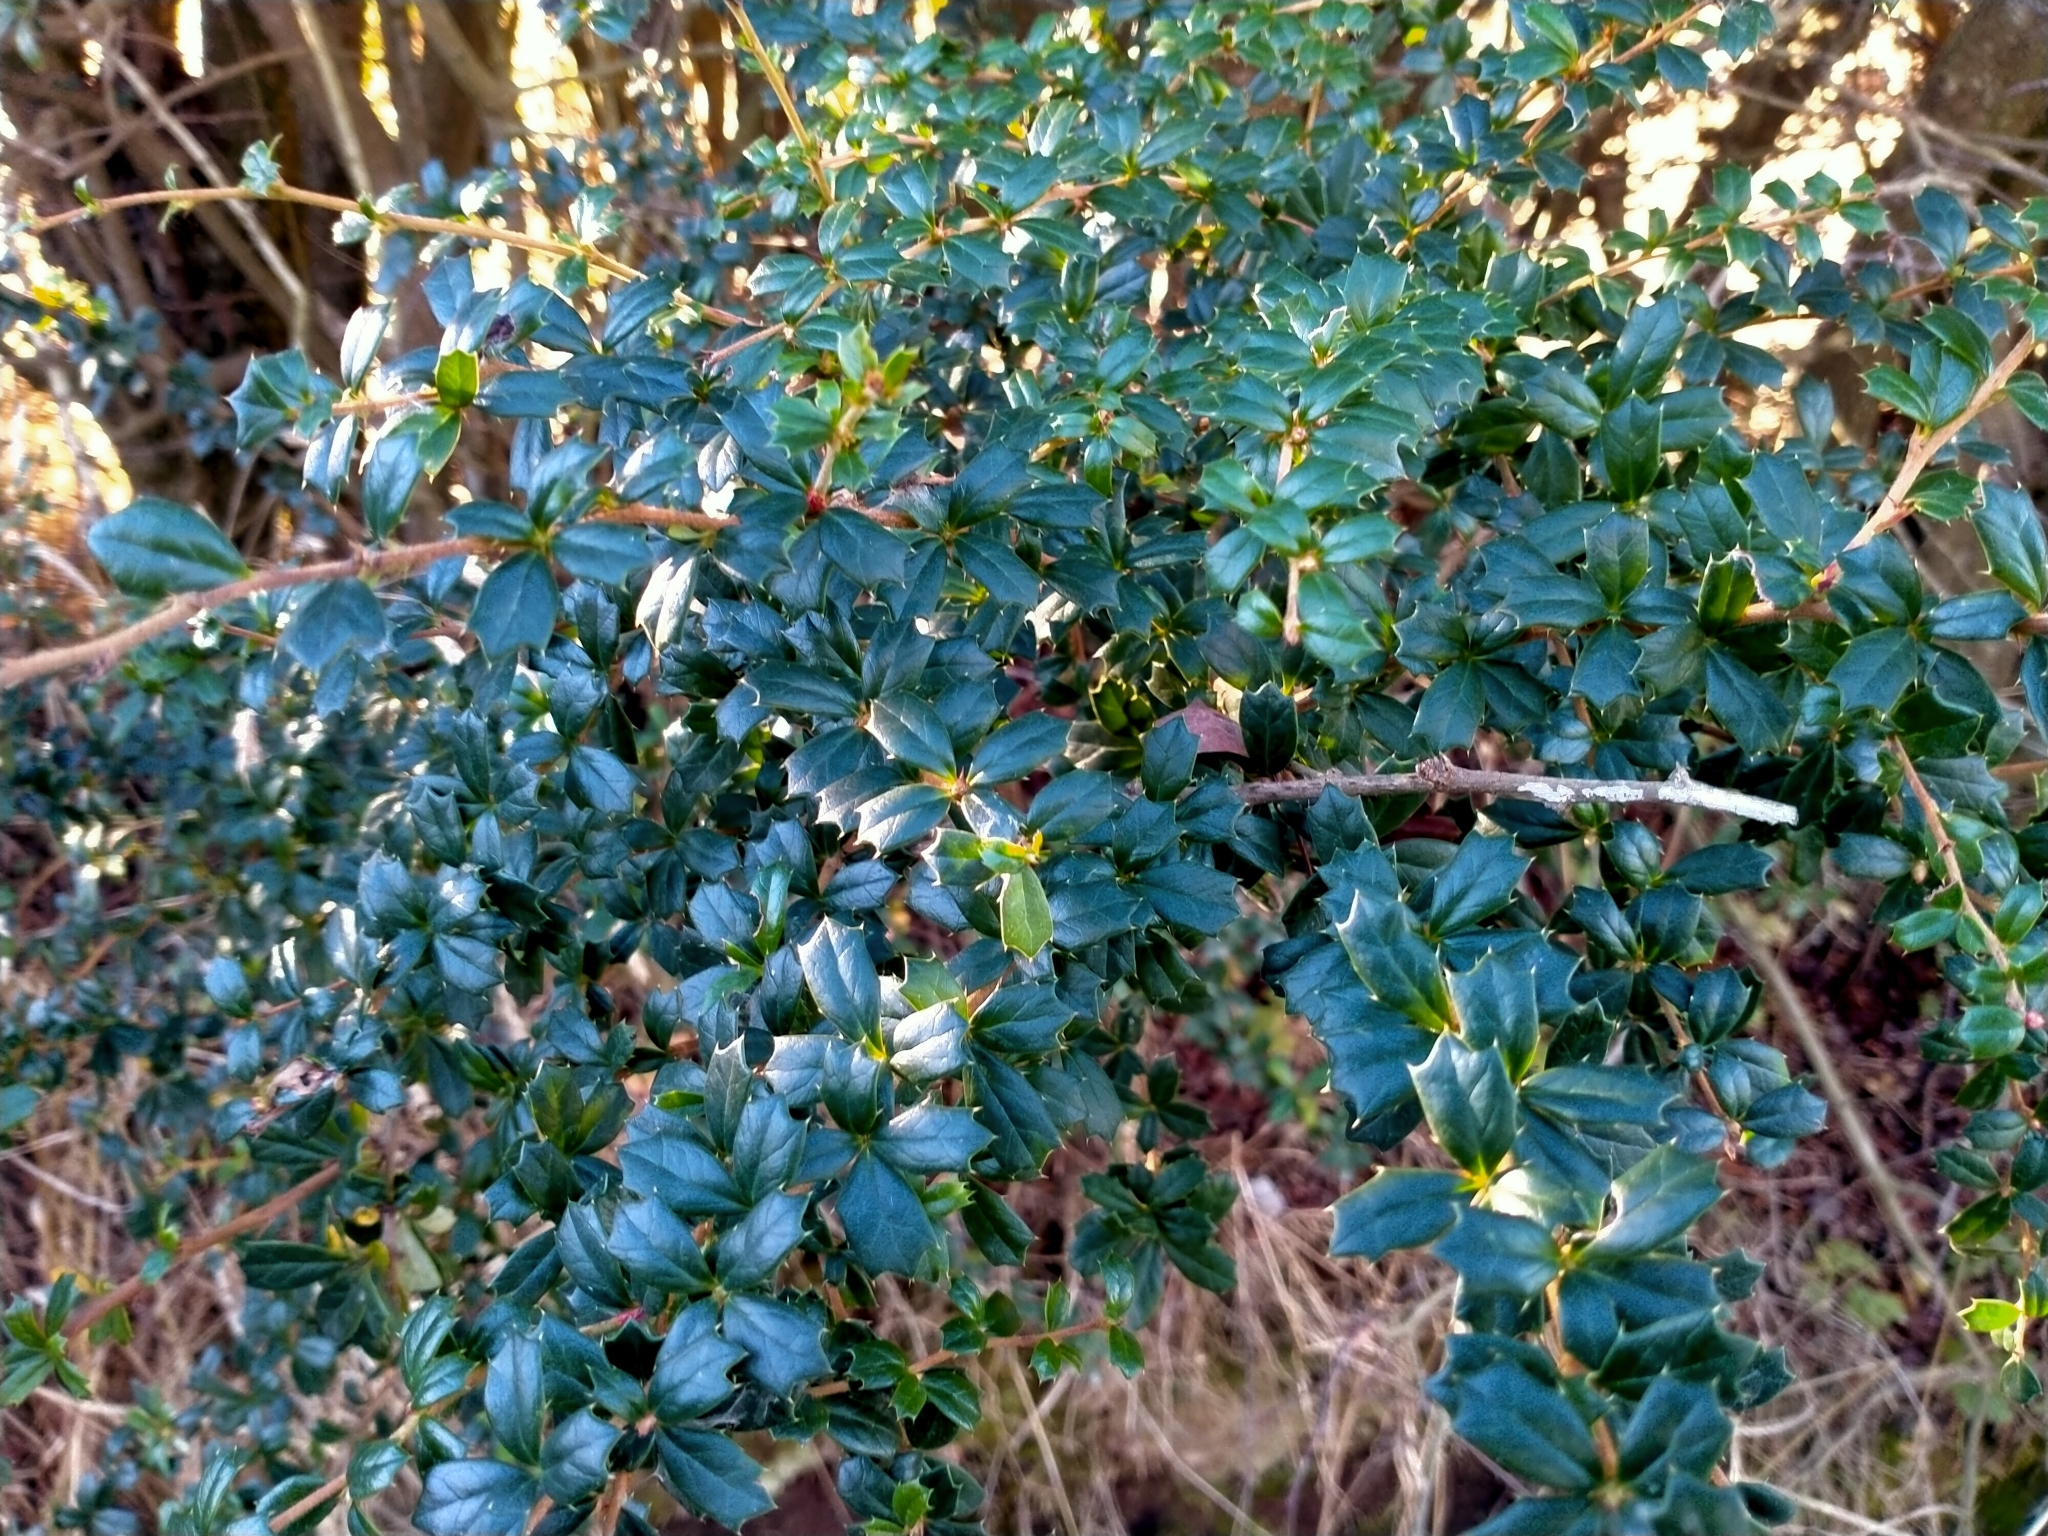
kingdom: Plantae
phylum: Tracheophyta
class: Magnoliopsida
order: Ranunculales
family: Berberidaceae
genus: Berberis
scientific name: Berberis darwinii
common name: Darwin's barberry
